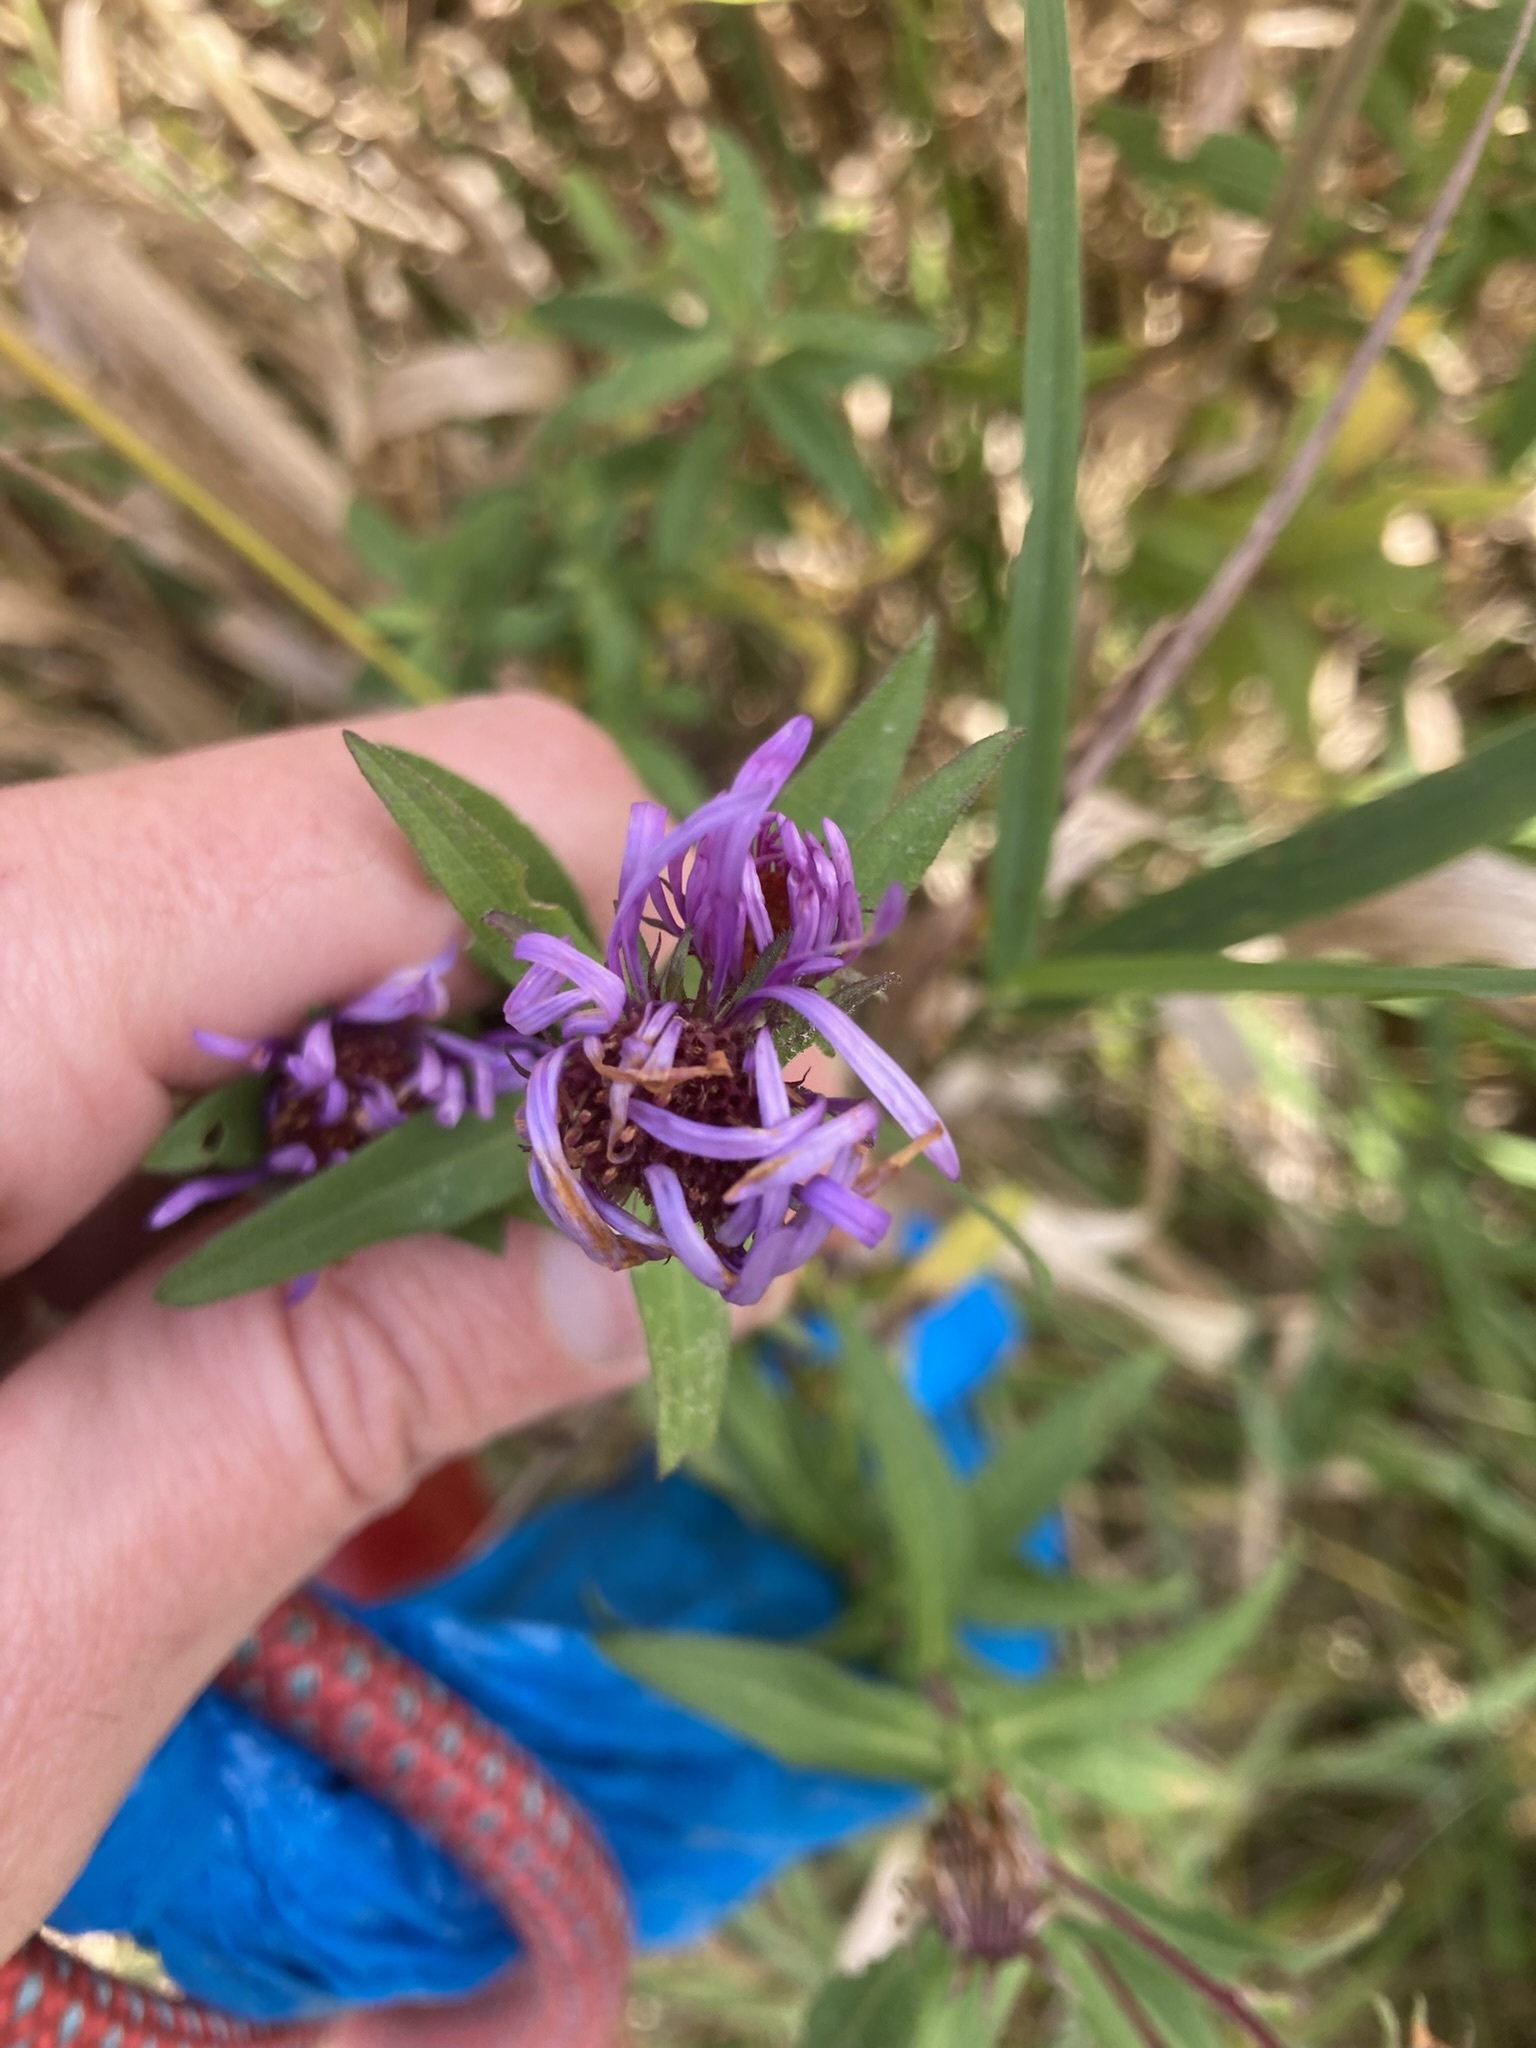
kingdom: Plantae
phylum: Tracheophyta
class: Magnoliopsida
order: Asterales
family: Asteraceae
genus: Symphyotrichum
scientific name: Symphyotrichum novae-angliae
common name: Michaelmas daisy
